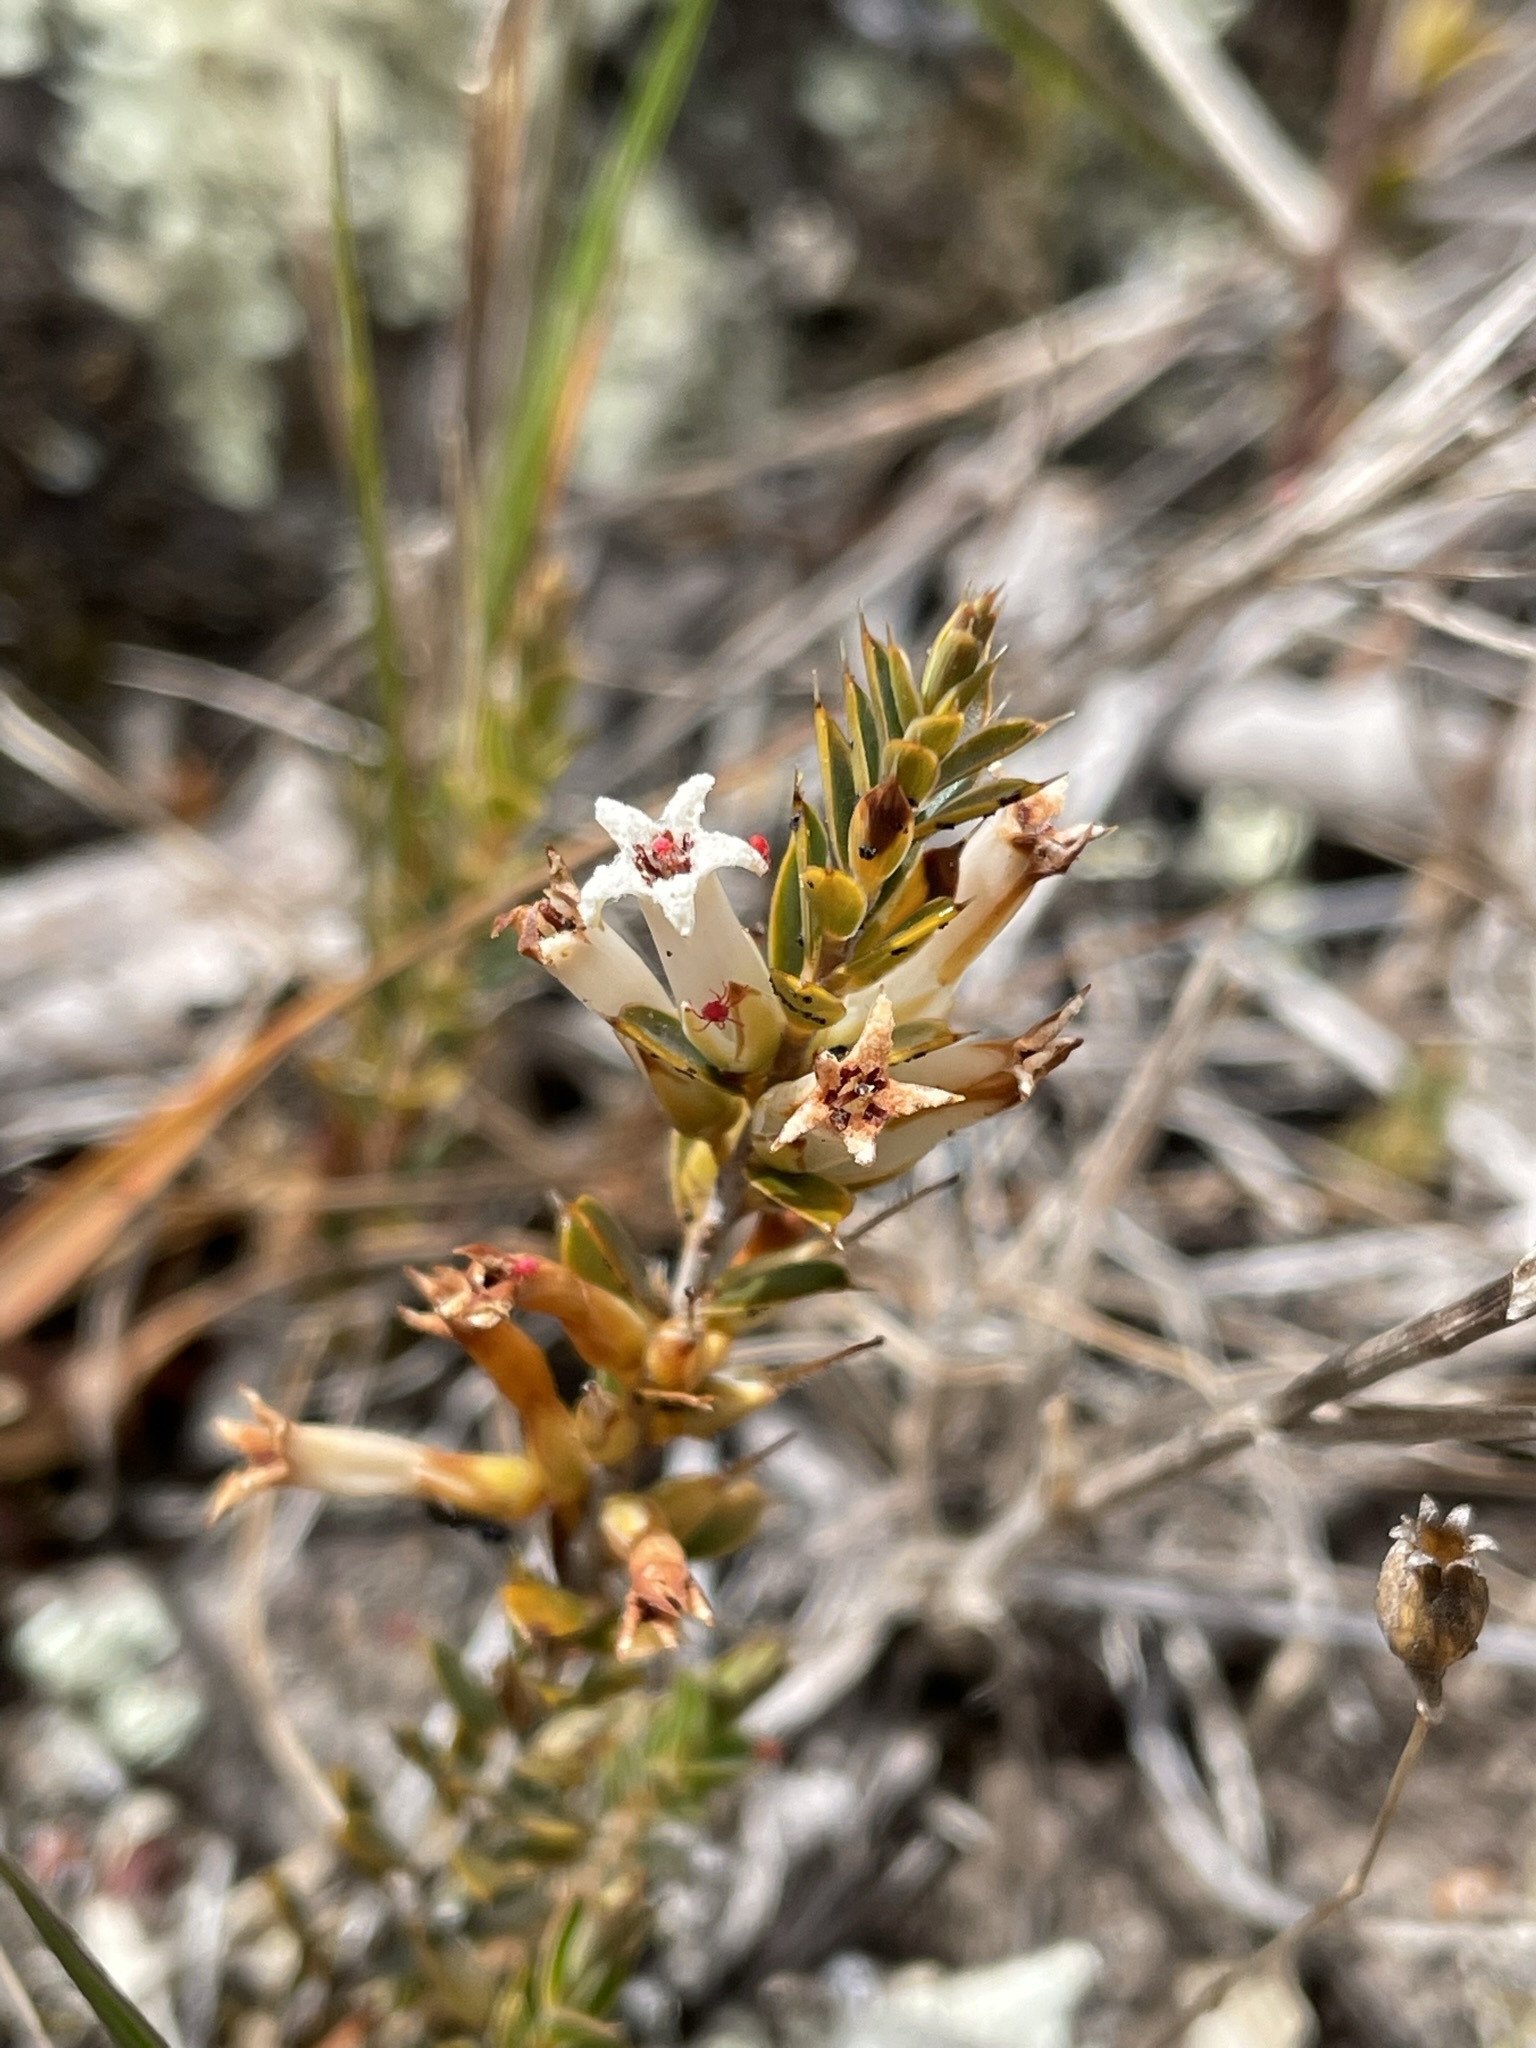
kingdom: Plantae
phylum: Tracheophyta
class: Magnoliopsida
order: Ericales
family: Ericaceae
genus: Styphelia
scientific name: Styphelia nesophila
